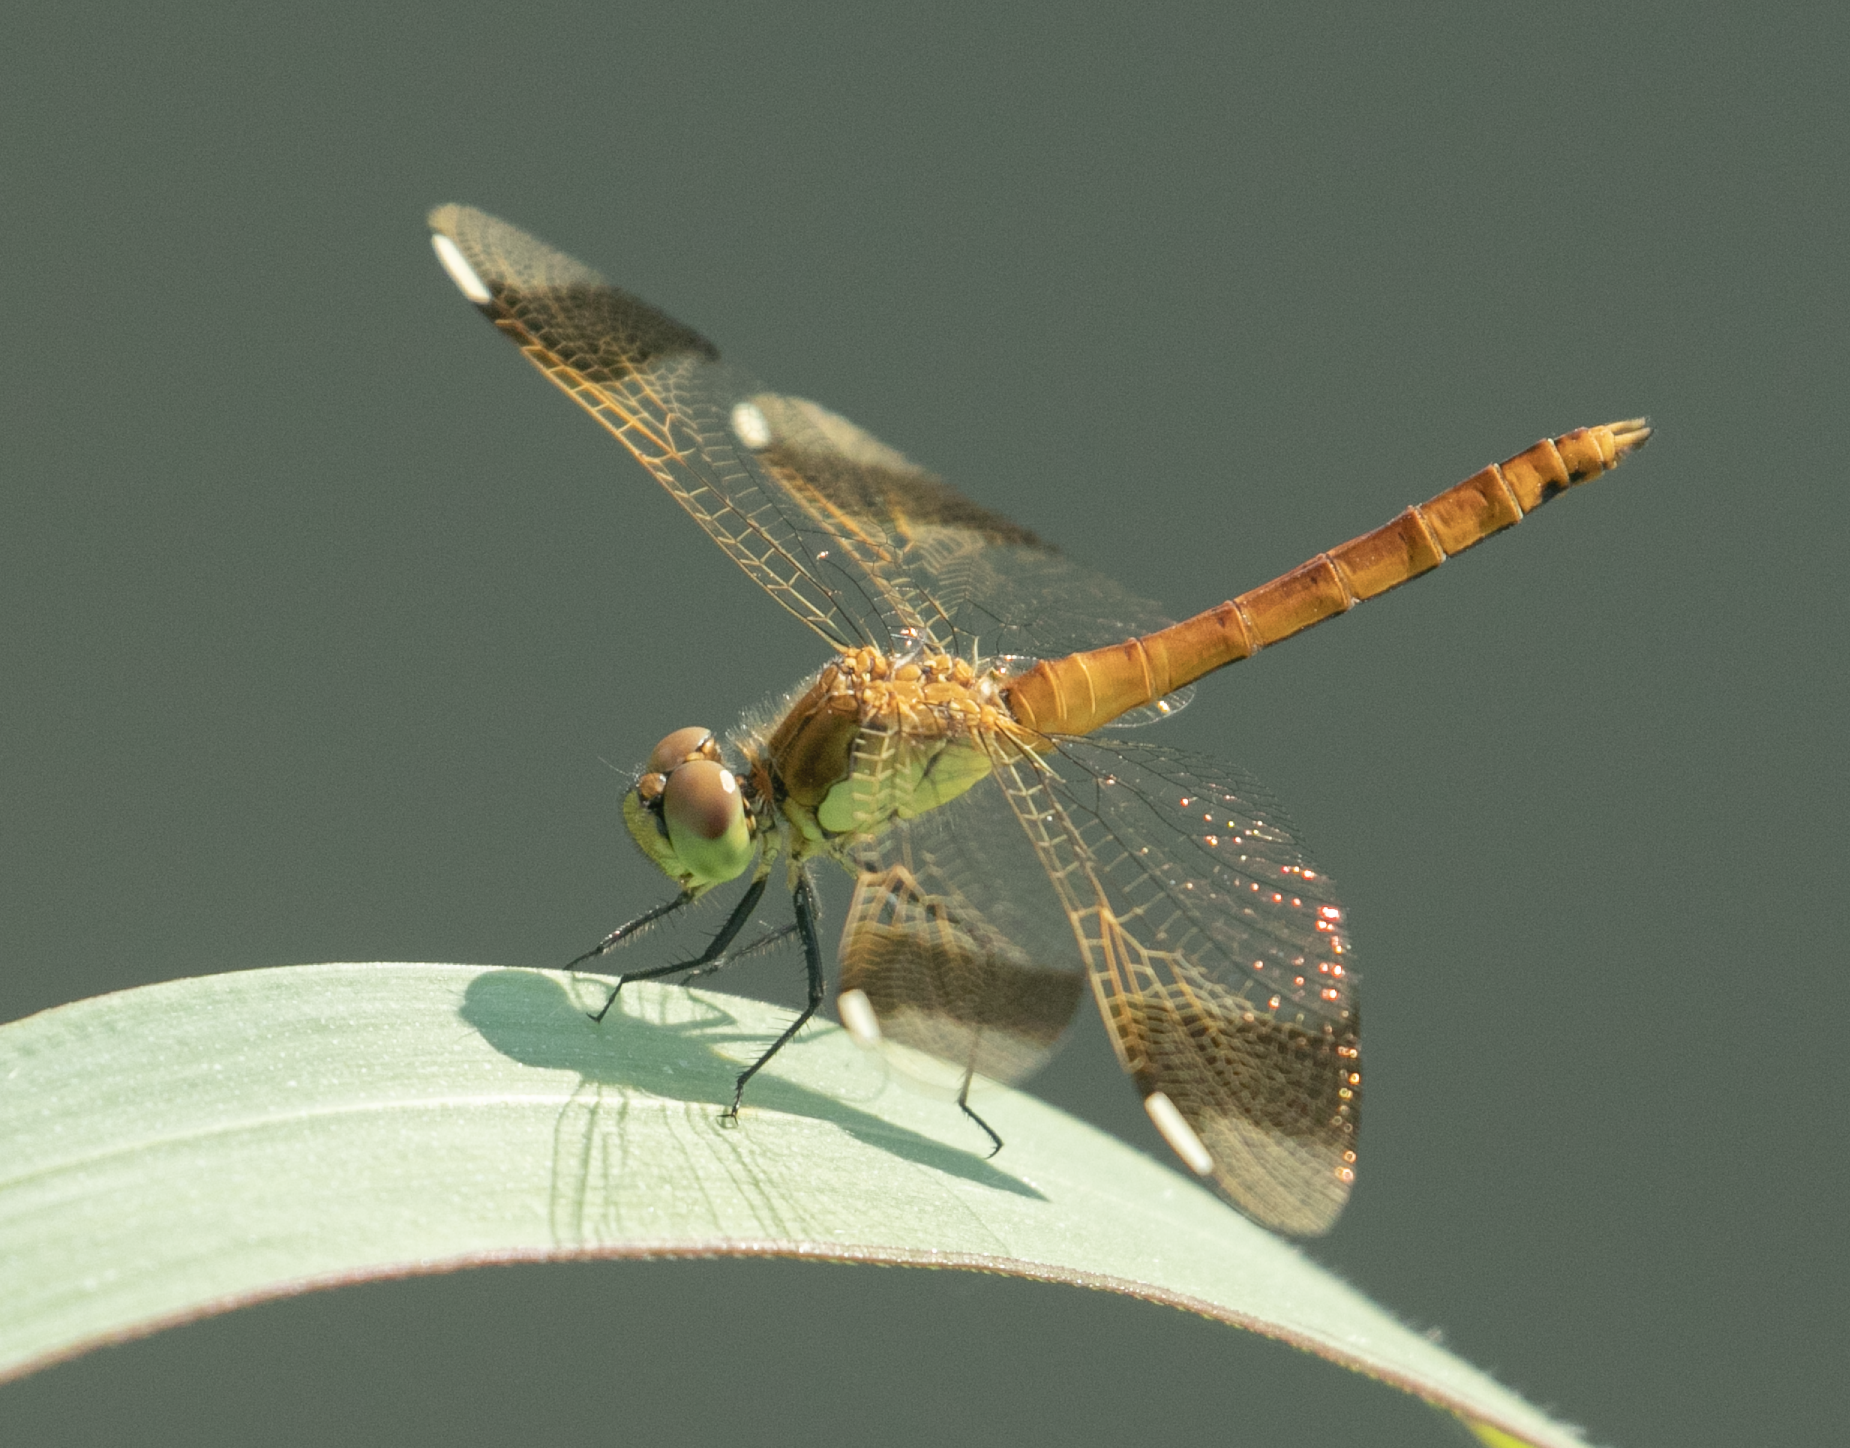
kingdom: Animalia
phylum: Arthropoda
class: Insecta
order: Odonata
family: Libellulidae
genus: Sympetrum
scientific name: Sympetrum pedemontanum
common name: Banded darter
